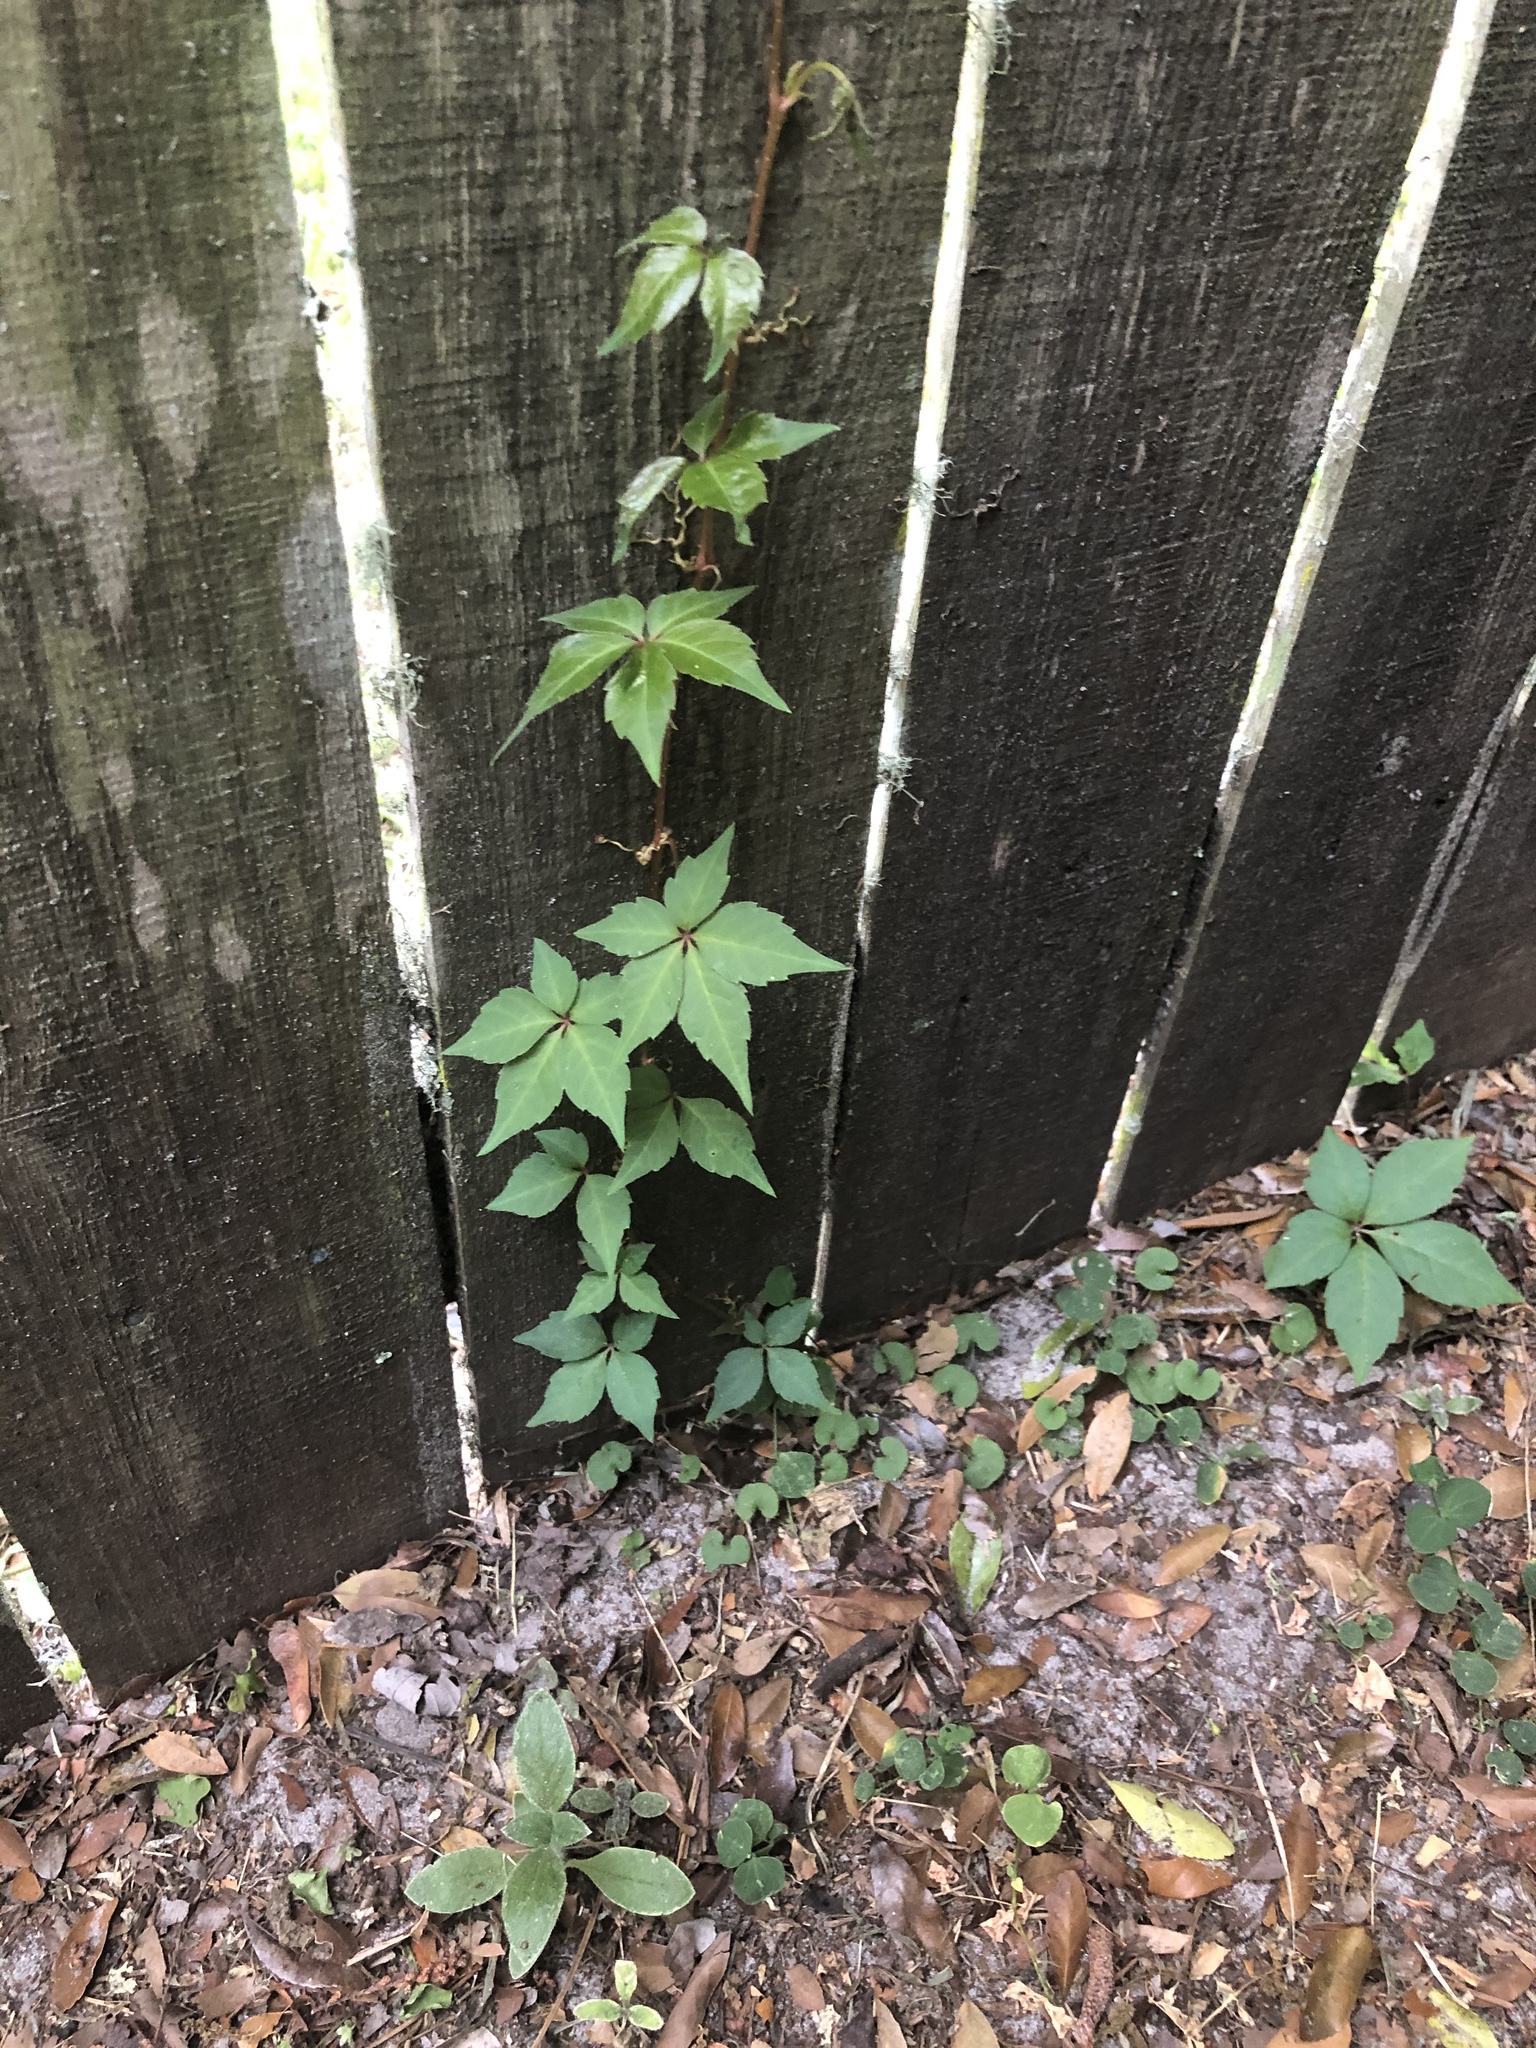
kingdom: Plantae
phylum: Tracheophyta
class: Magnoliopsida
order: Vitales
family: Vitaceae
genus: Parthenocissus
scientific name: Parthenocissus quinquefolia
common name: Virginia-creeper
